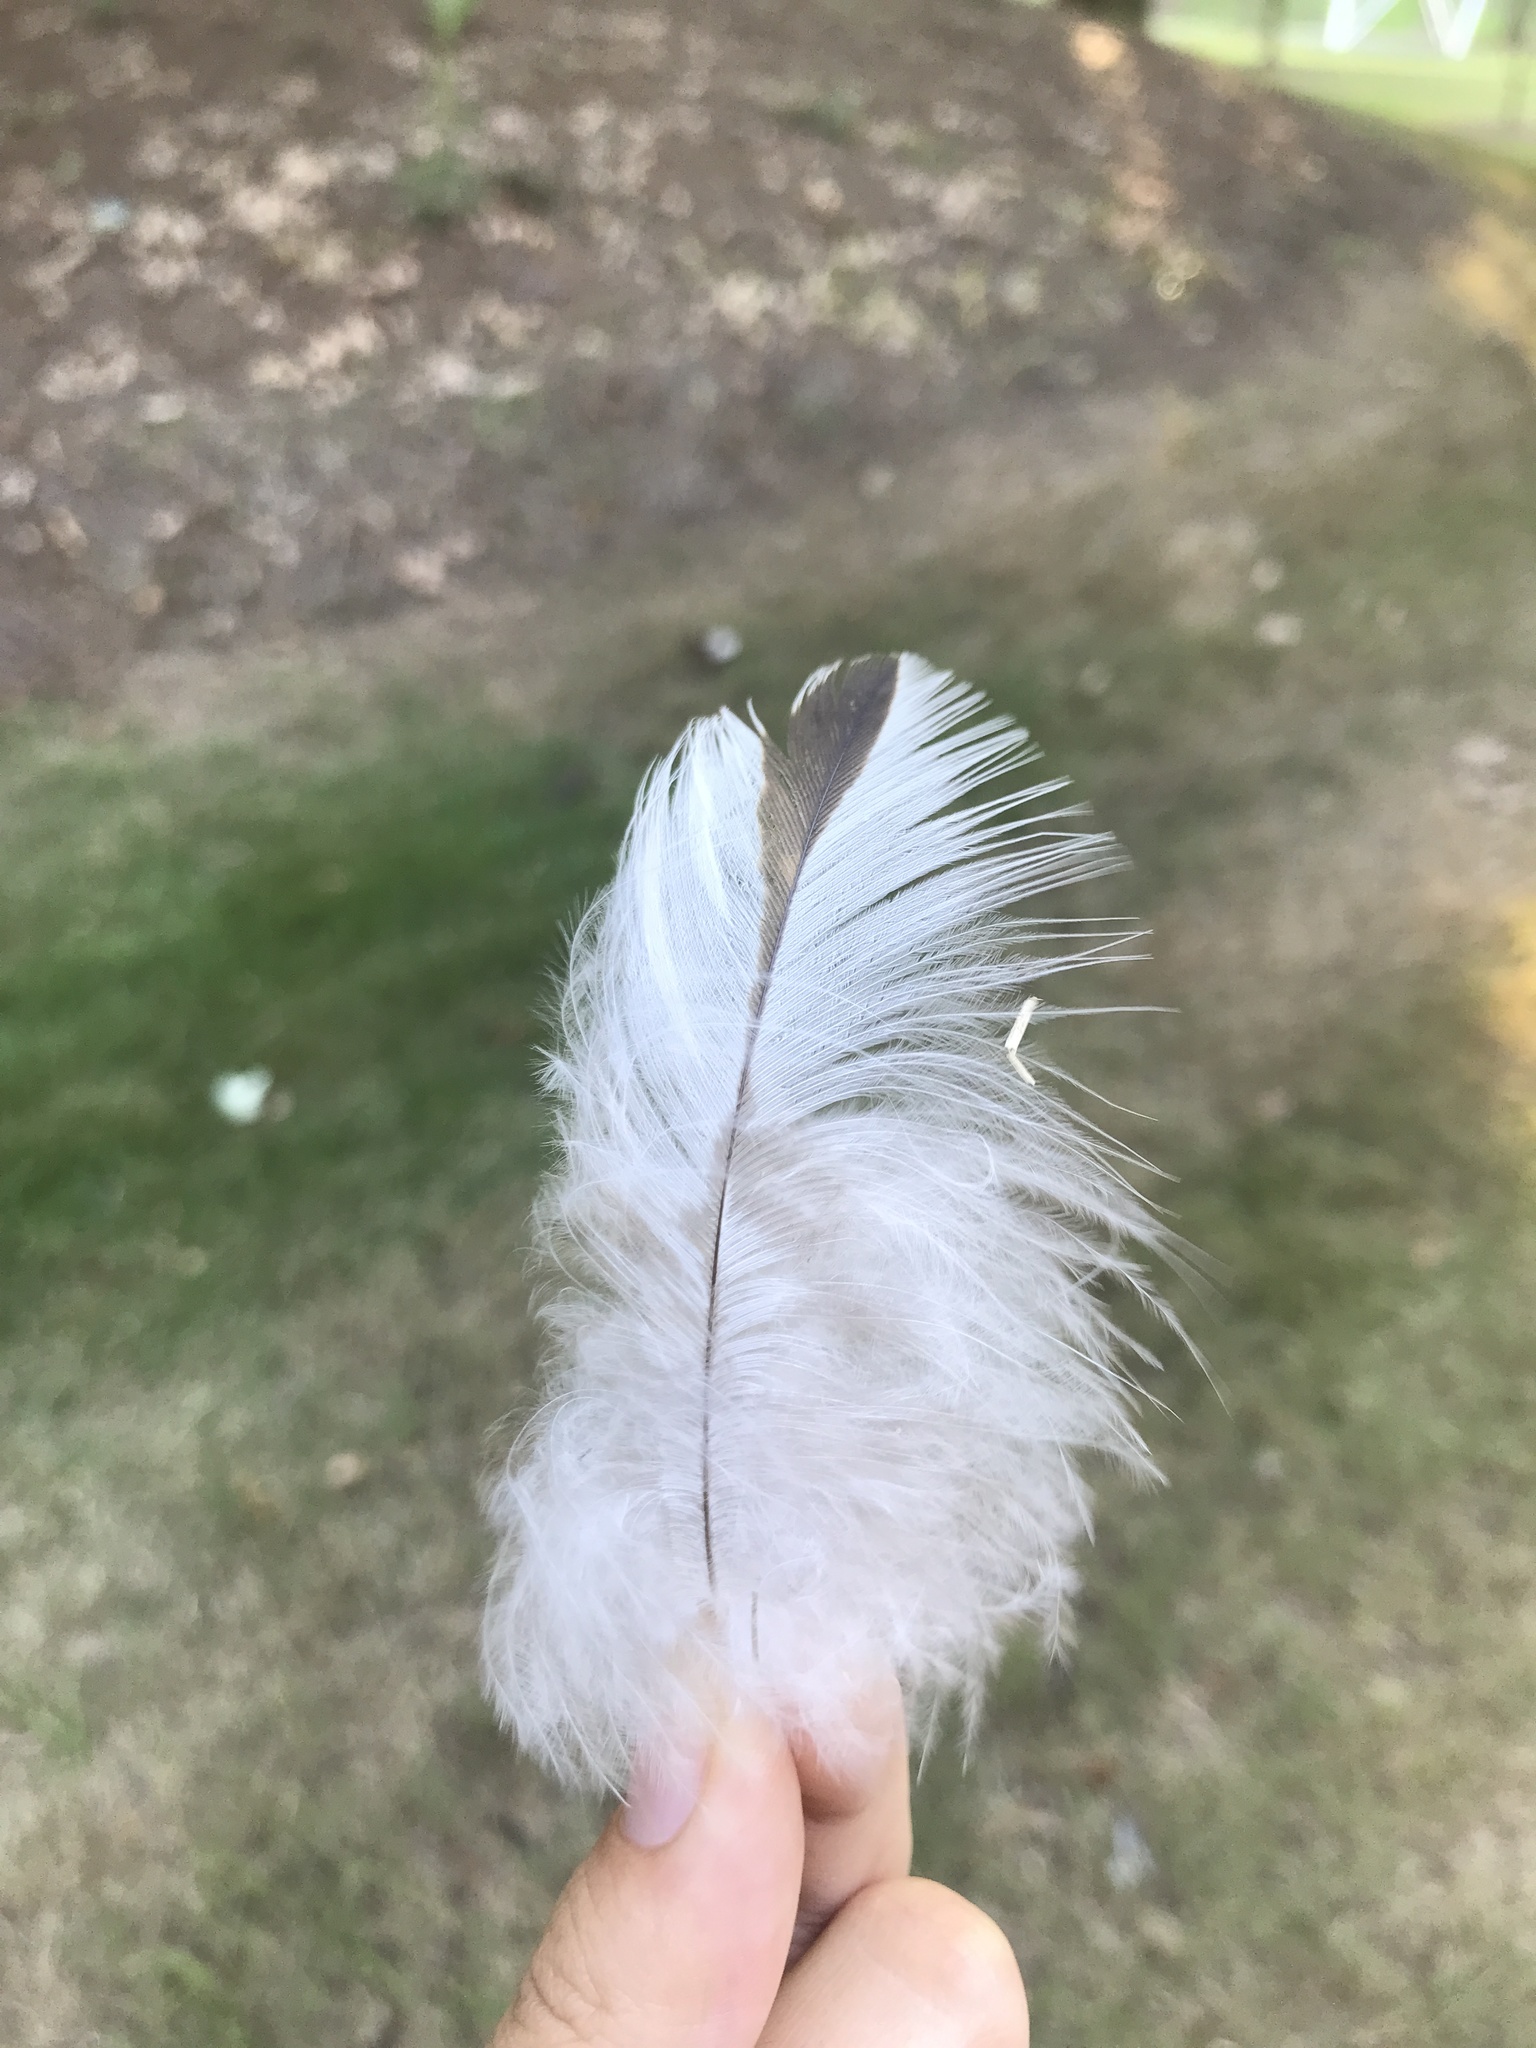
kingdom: Animalia
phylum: Chordata
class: Aves
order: Accipitriformes
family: Accipitridae
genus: Accipiter
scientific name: Accipiter cooperii
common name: Cooper's hawk
